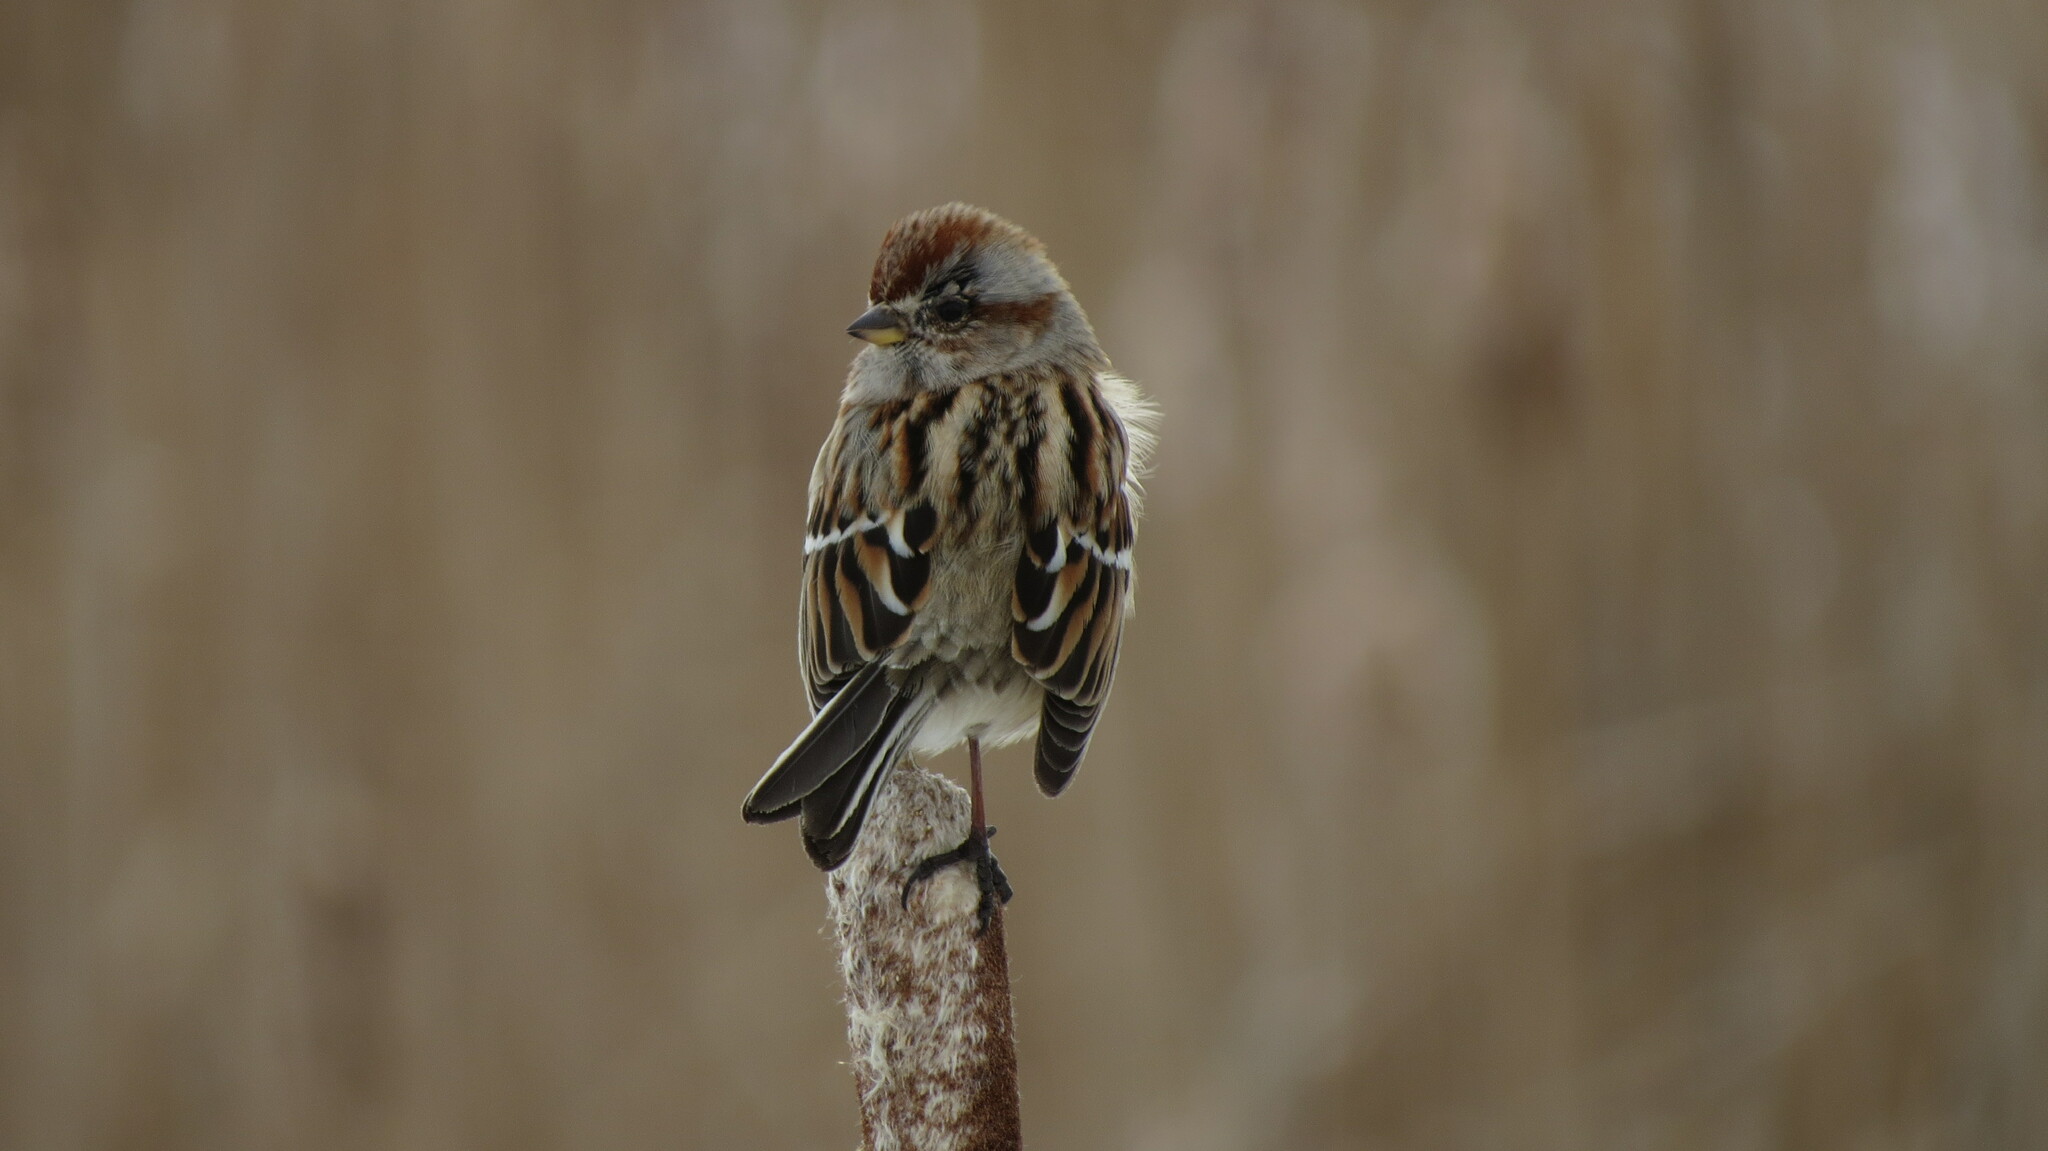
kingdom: Animalia
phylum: Chordata
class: Aves
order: Passeriformes
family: Passerellidae
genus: Spizelloides
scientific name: Spizelloides arborea
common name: American tree sparrow
